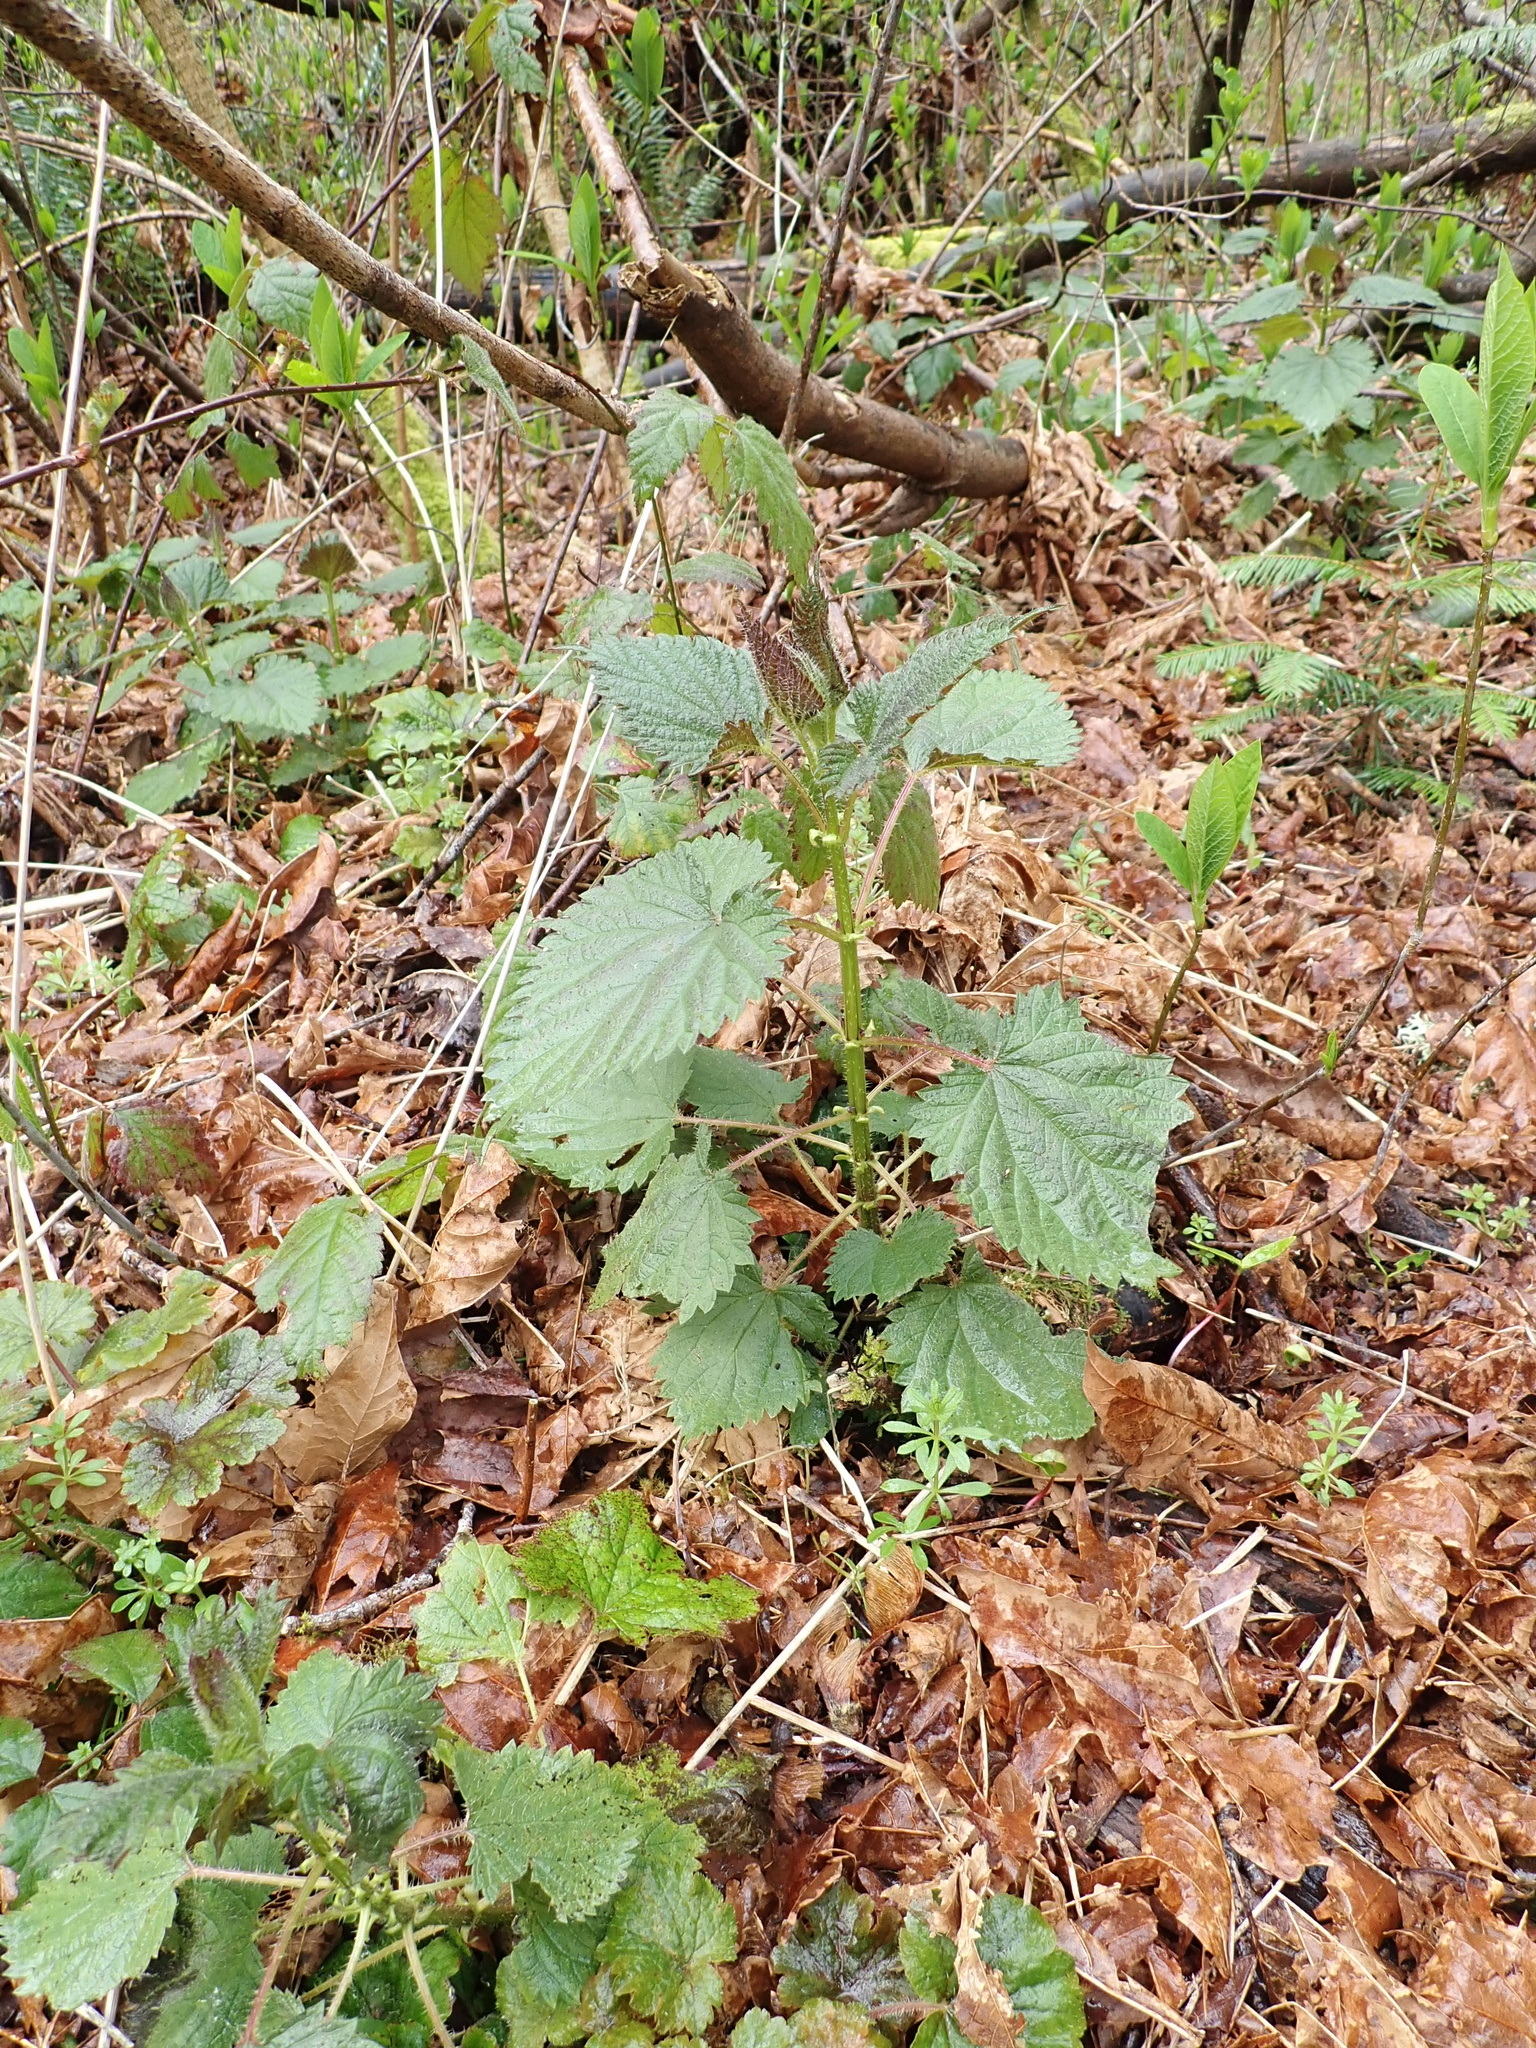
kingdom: Plantae
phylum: Tracheophyta
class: Magnoliopsida
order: Rosales
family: Urticaceae
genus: Urtica
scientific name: Urtica gracilis
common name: Slender stinging nettle
